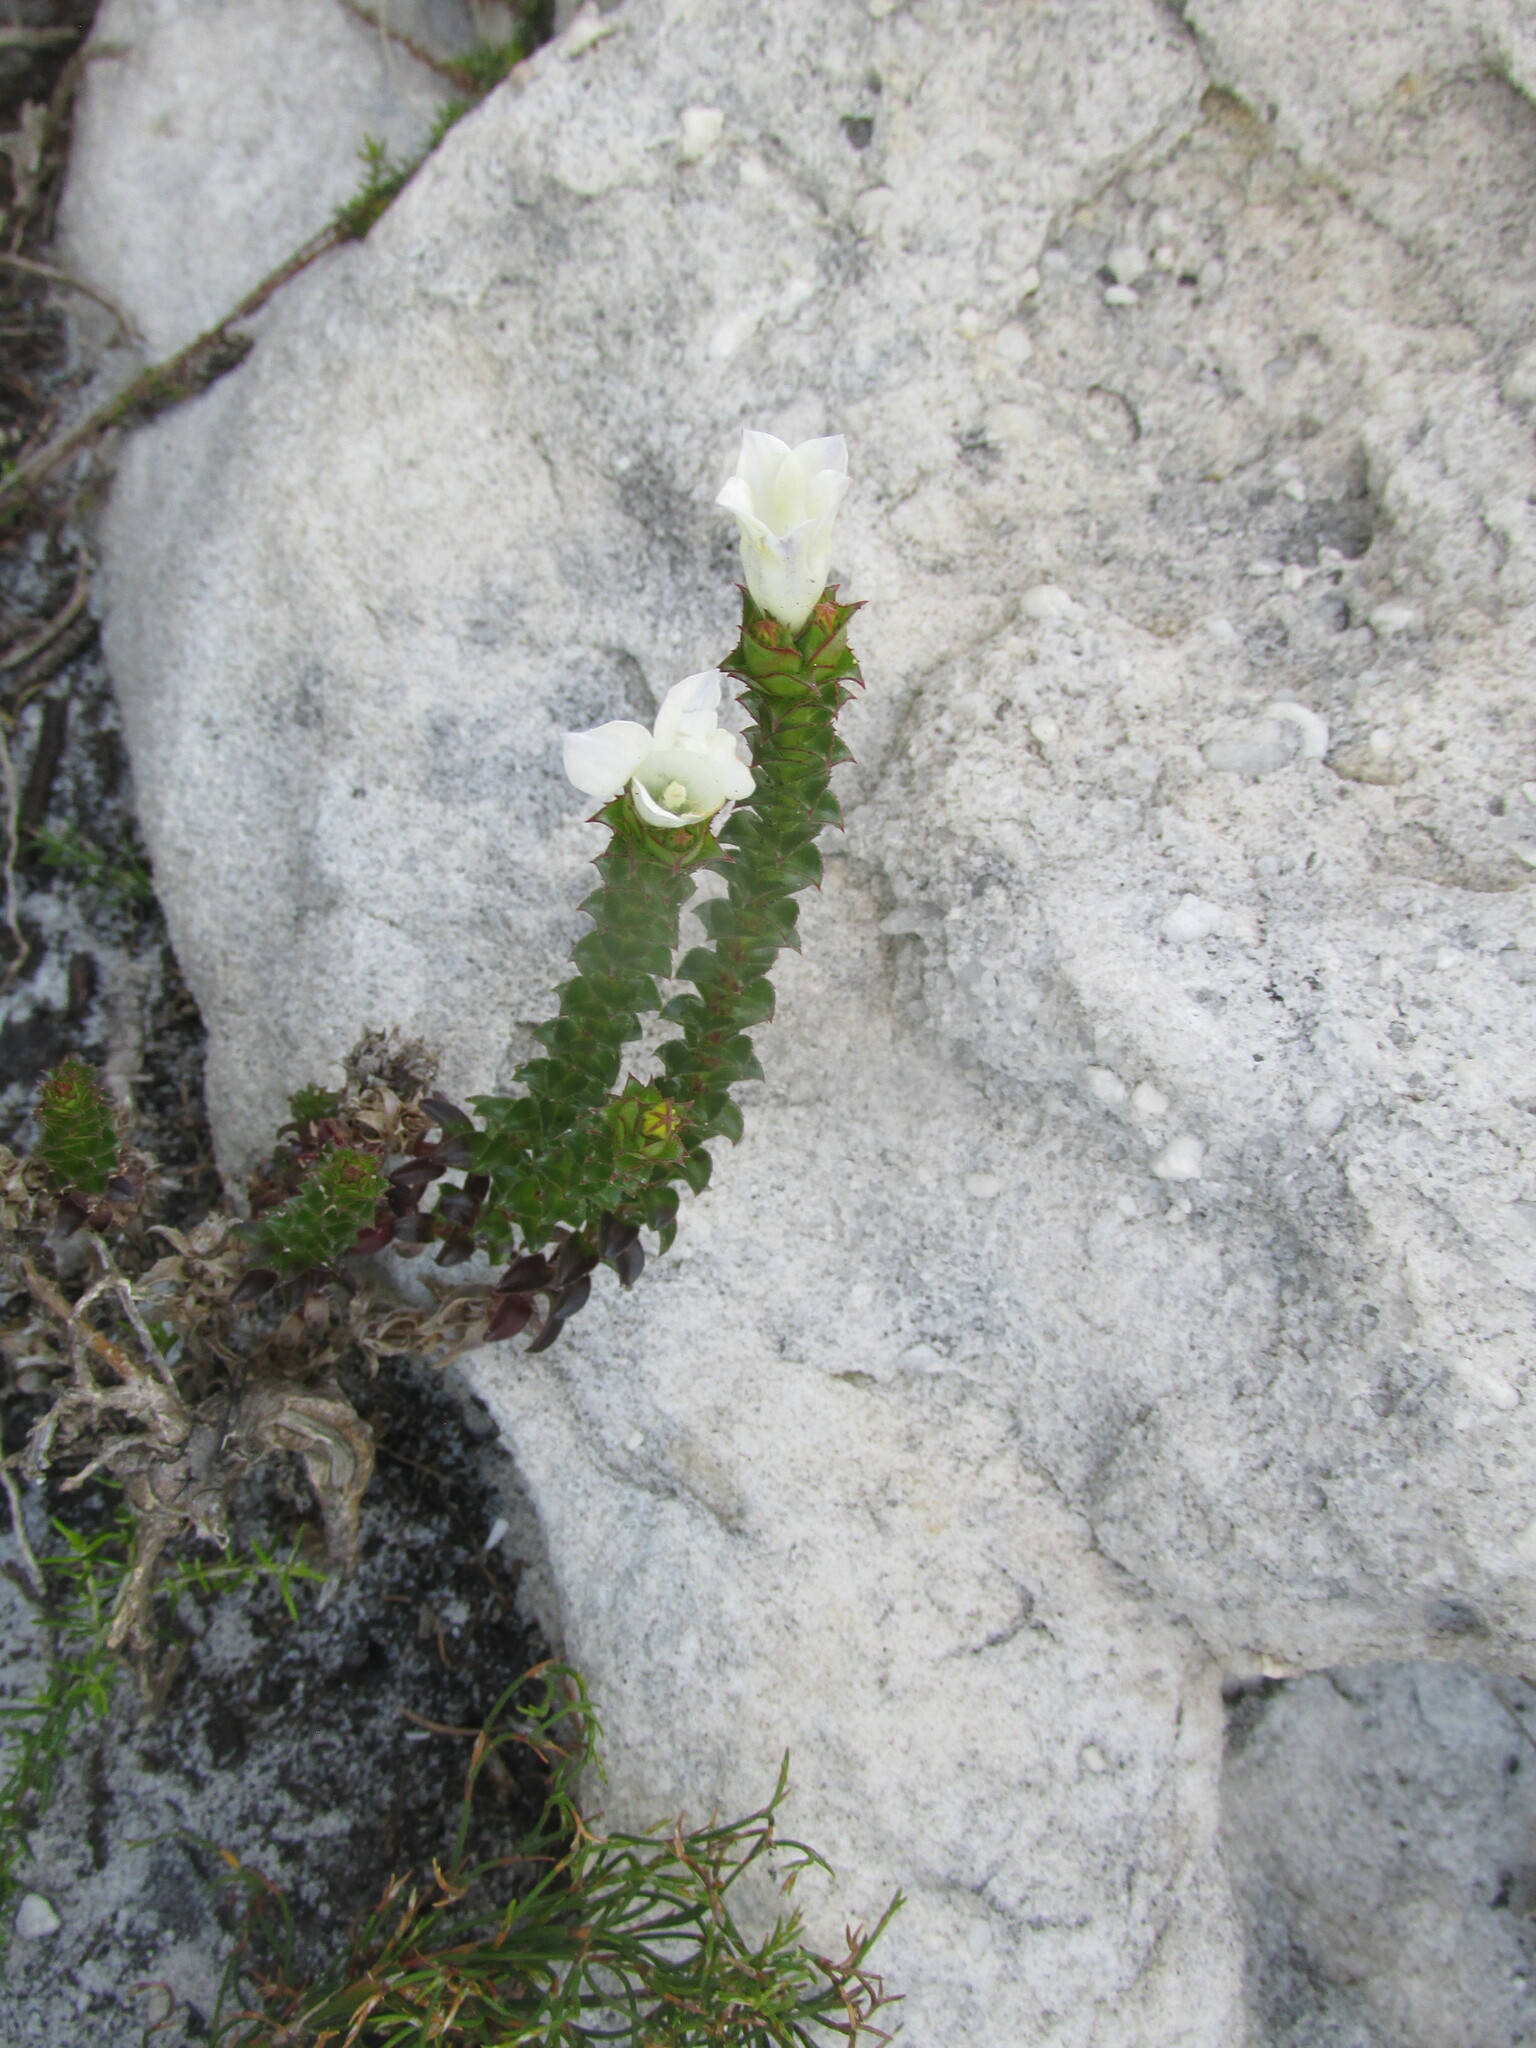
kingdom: Plantae
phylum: Tracheophyta
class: Magnoliopsida
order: Asterales
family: Campanulaceae
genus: Roella
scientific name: Roella amplexicaulis
